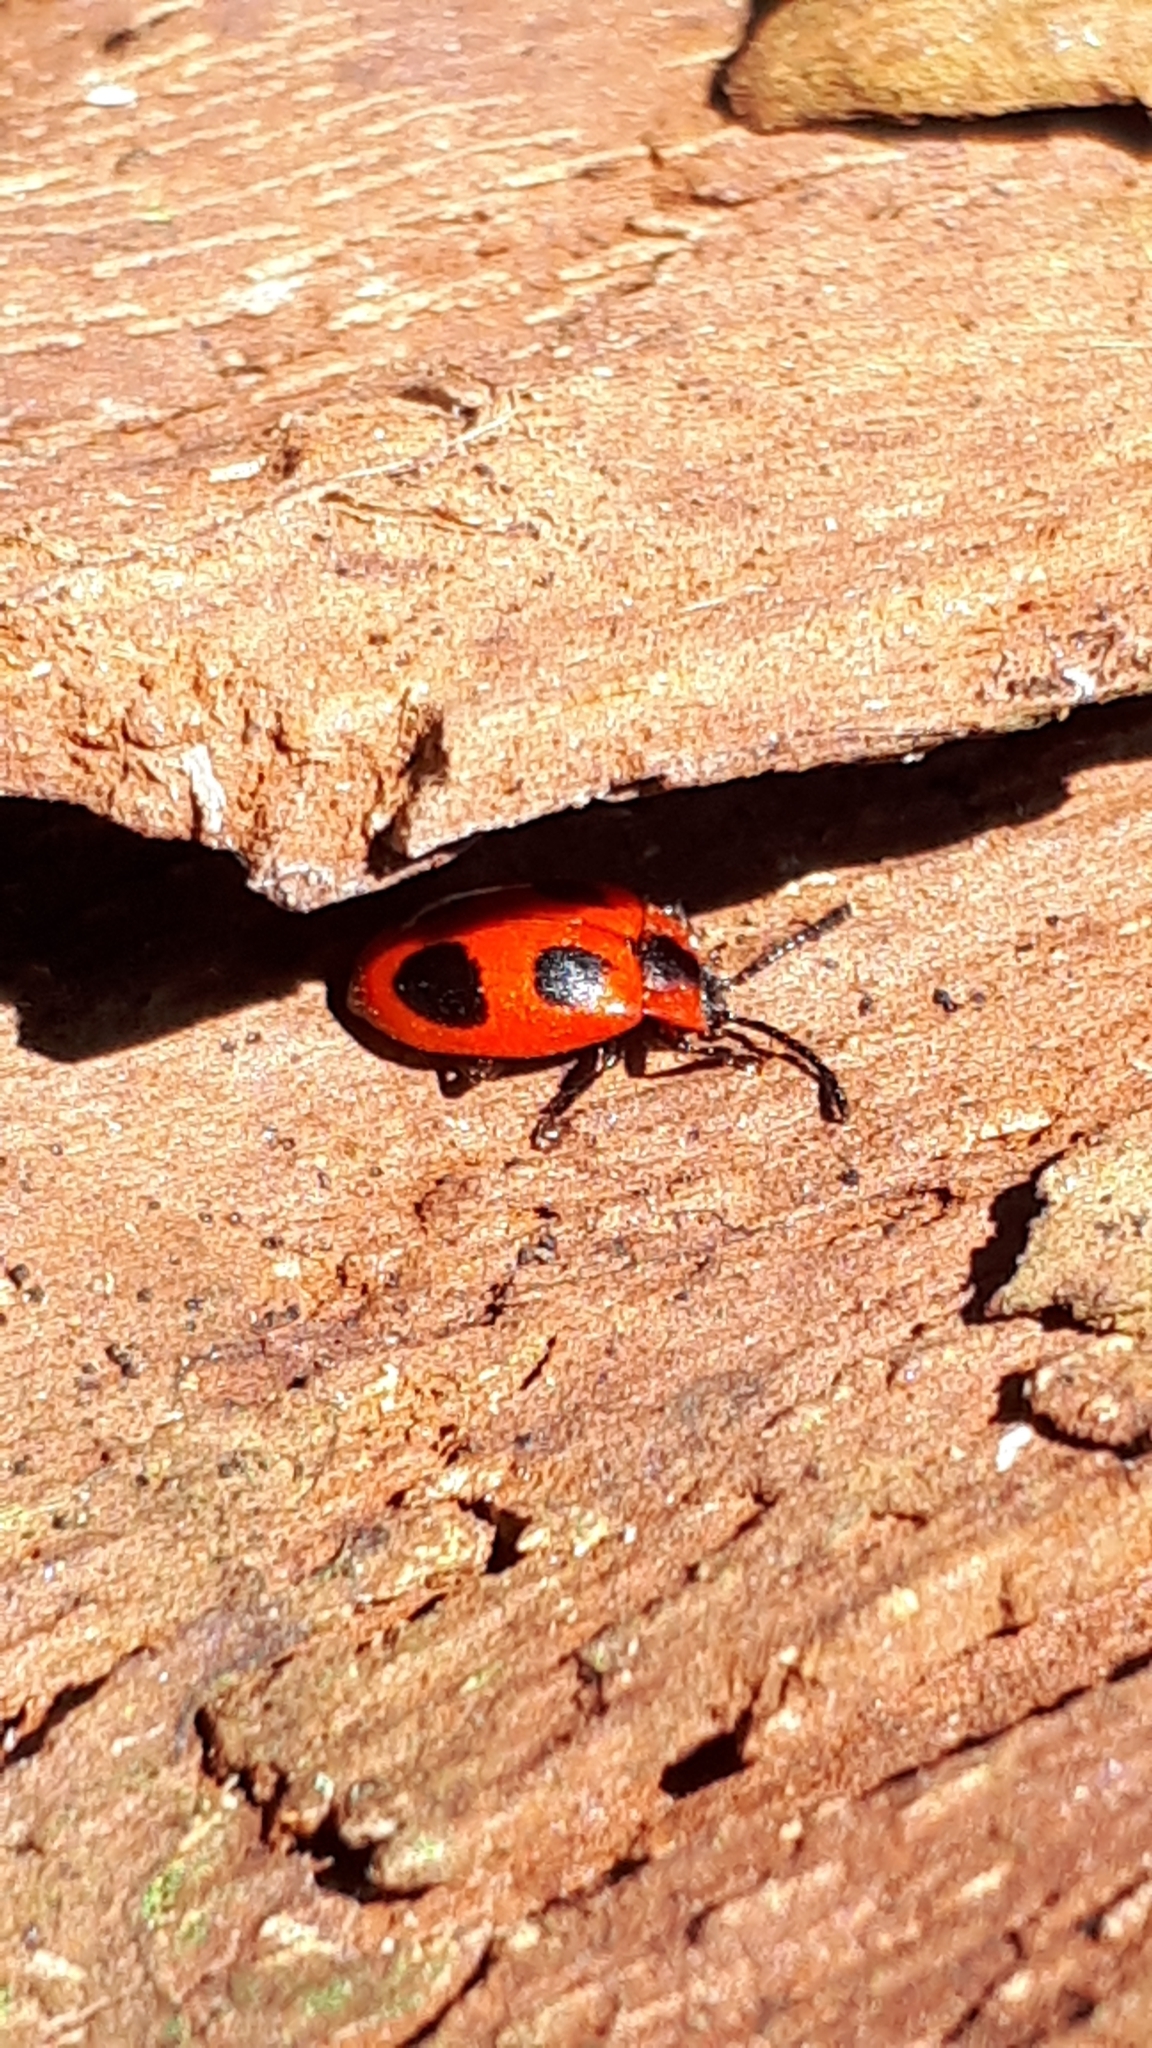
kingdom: Animalia
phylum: Arthropoda
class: Insecta
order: Coleoptera
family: Endomychidae
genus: Endomychus
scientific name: Endomychus coccineus
